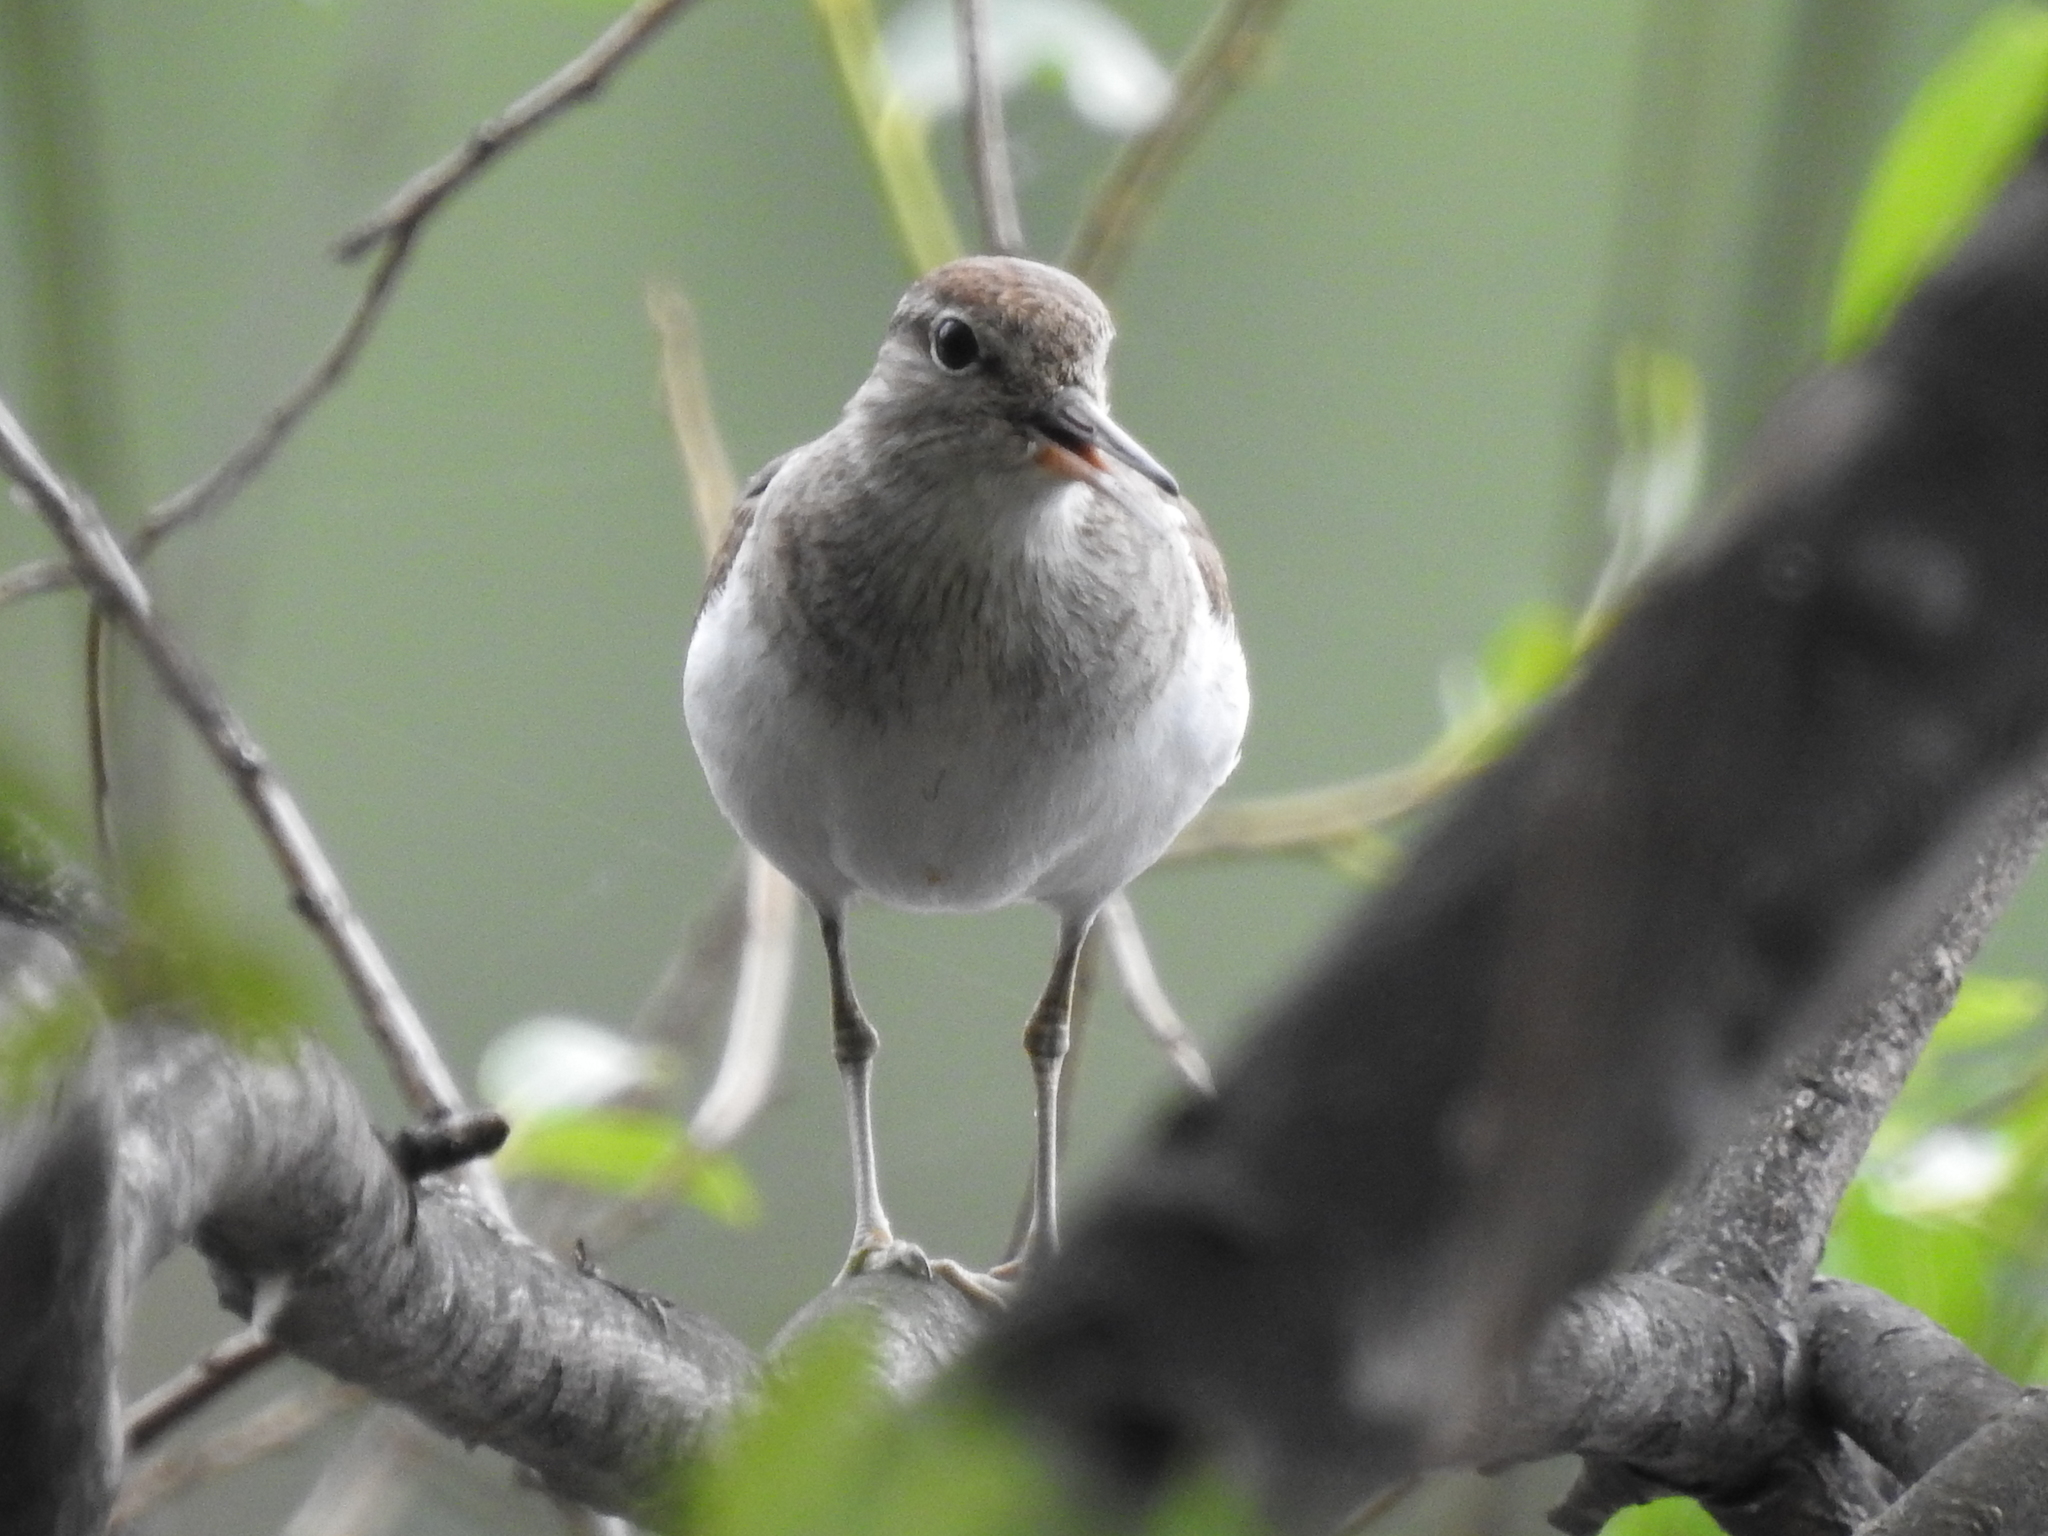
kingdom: Animalia
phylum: Chordata
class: Aves
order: Charadriiformes
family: Scolopacidae
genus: Actitis
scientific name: Actitis hypoleucos
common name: Common sandpiper
